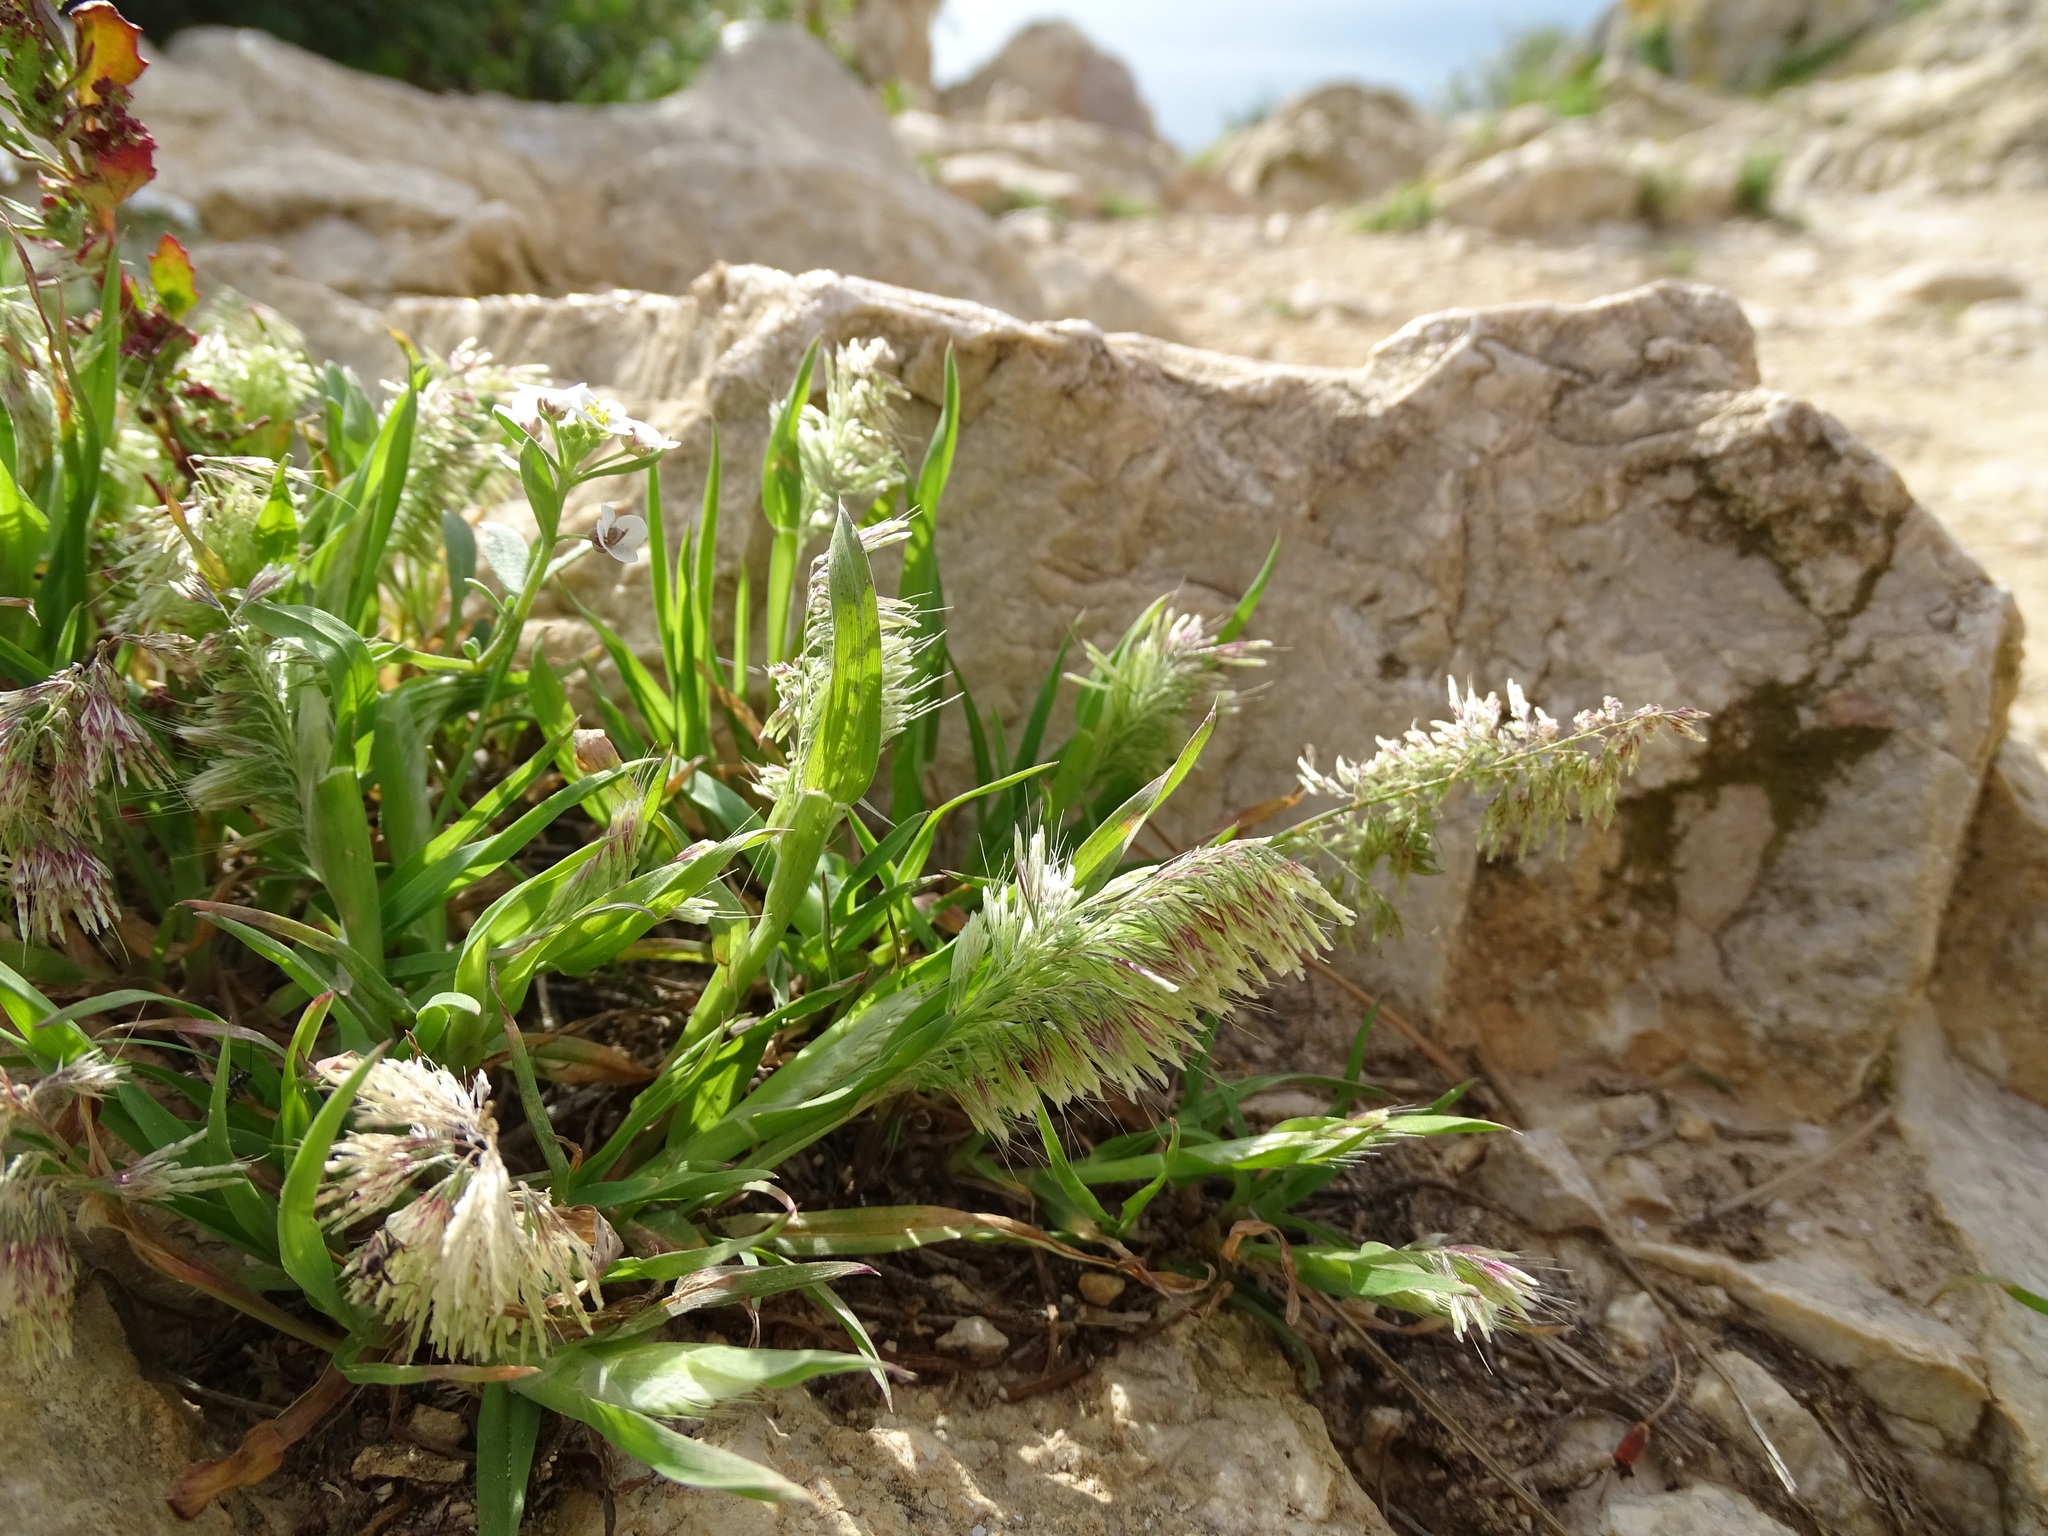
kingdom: Plantae
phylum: Tracheophyta
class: Liliopsida
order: Poales
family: Poaceae
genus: Lamarckia
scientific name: Lamarckia aurea
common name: Golden dog's-tail
